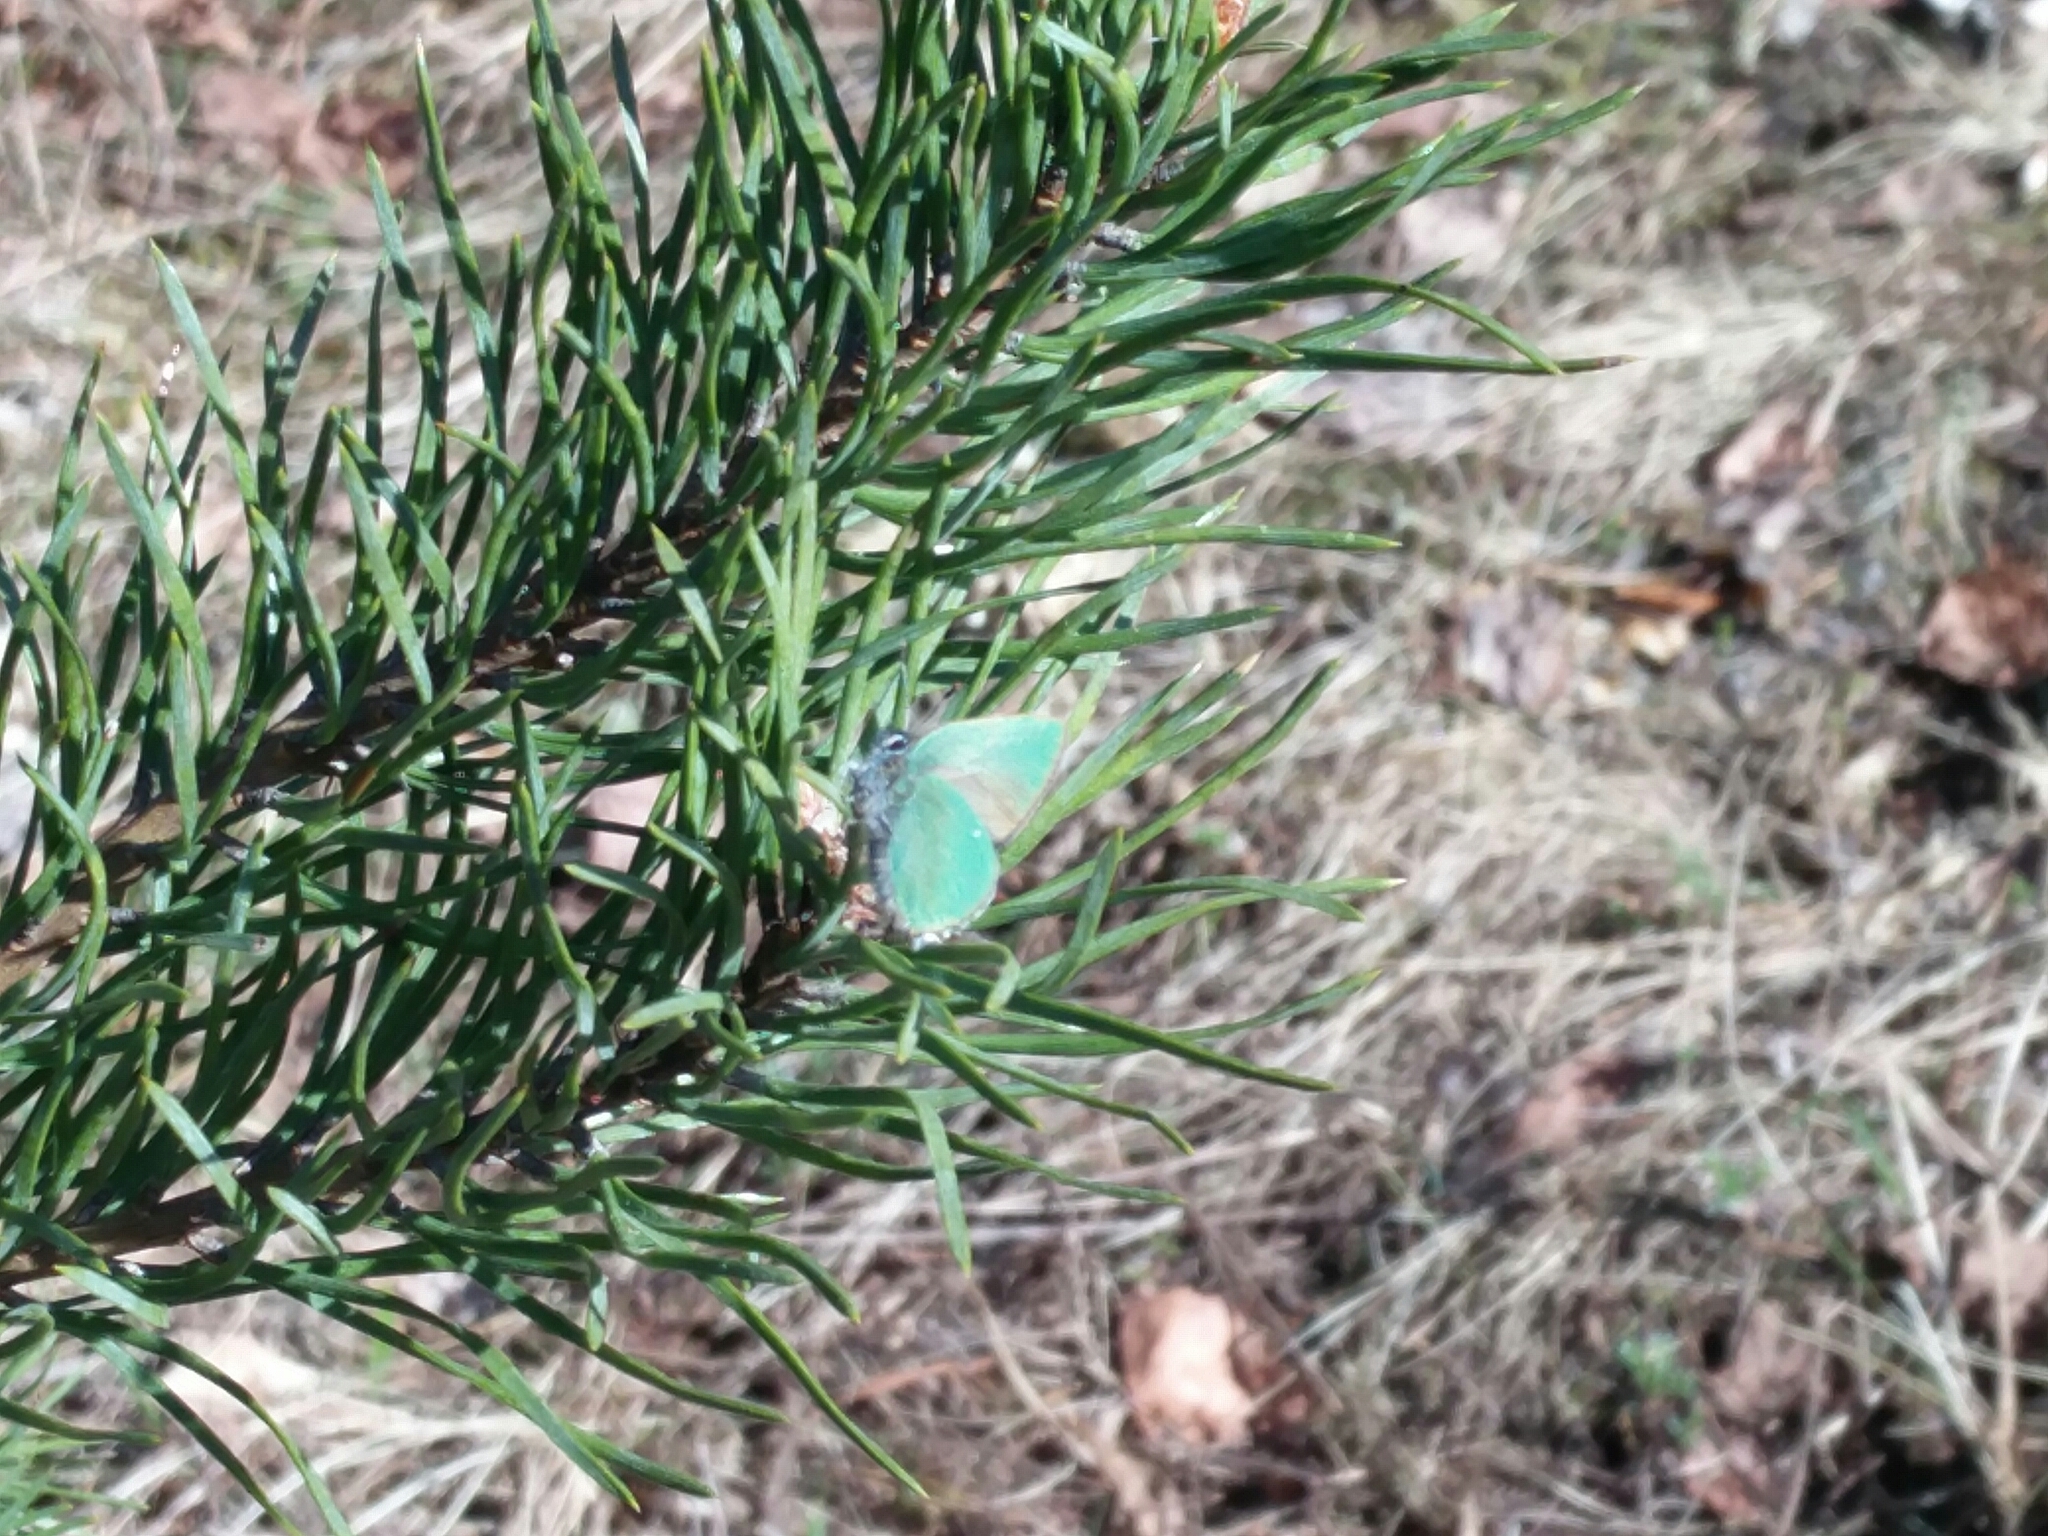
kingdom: Animalia
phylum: Arthropoda
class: Insecta
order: Lepidoptera
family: Lycaenidae
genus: Callophrys
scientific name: Callophrys rubi
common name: Green hairstreak
